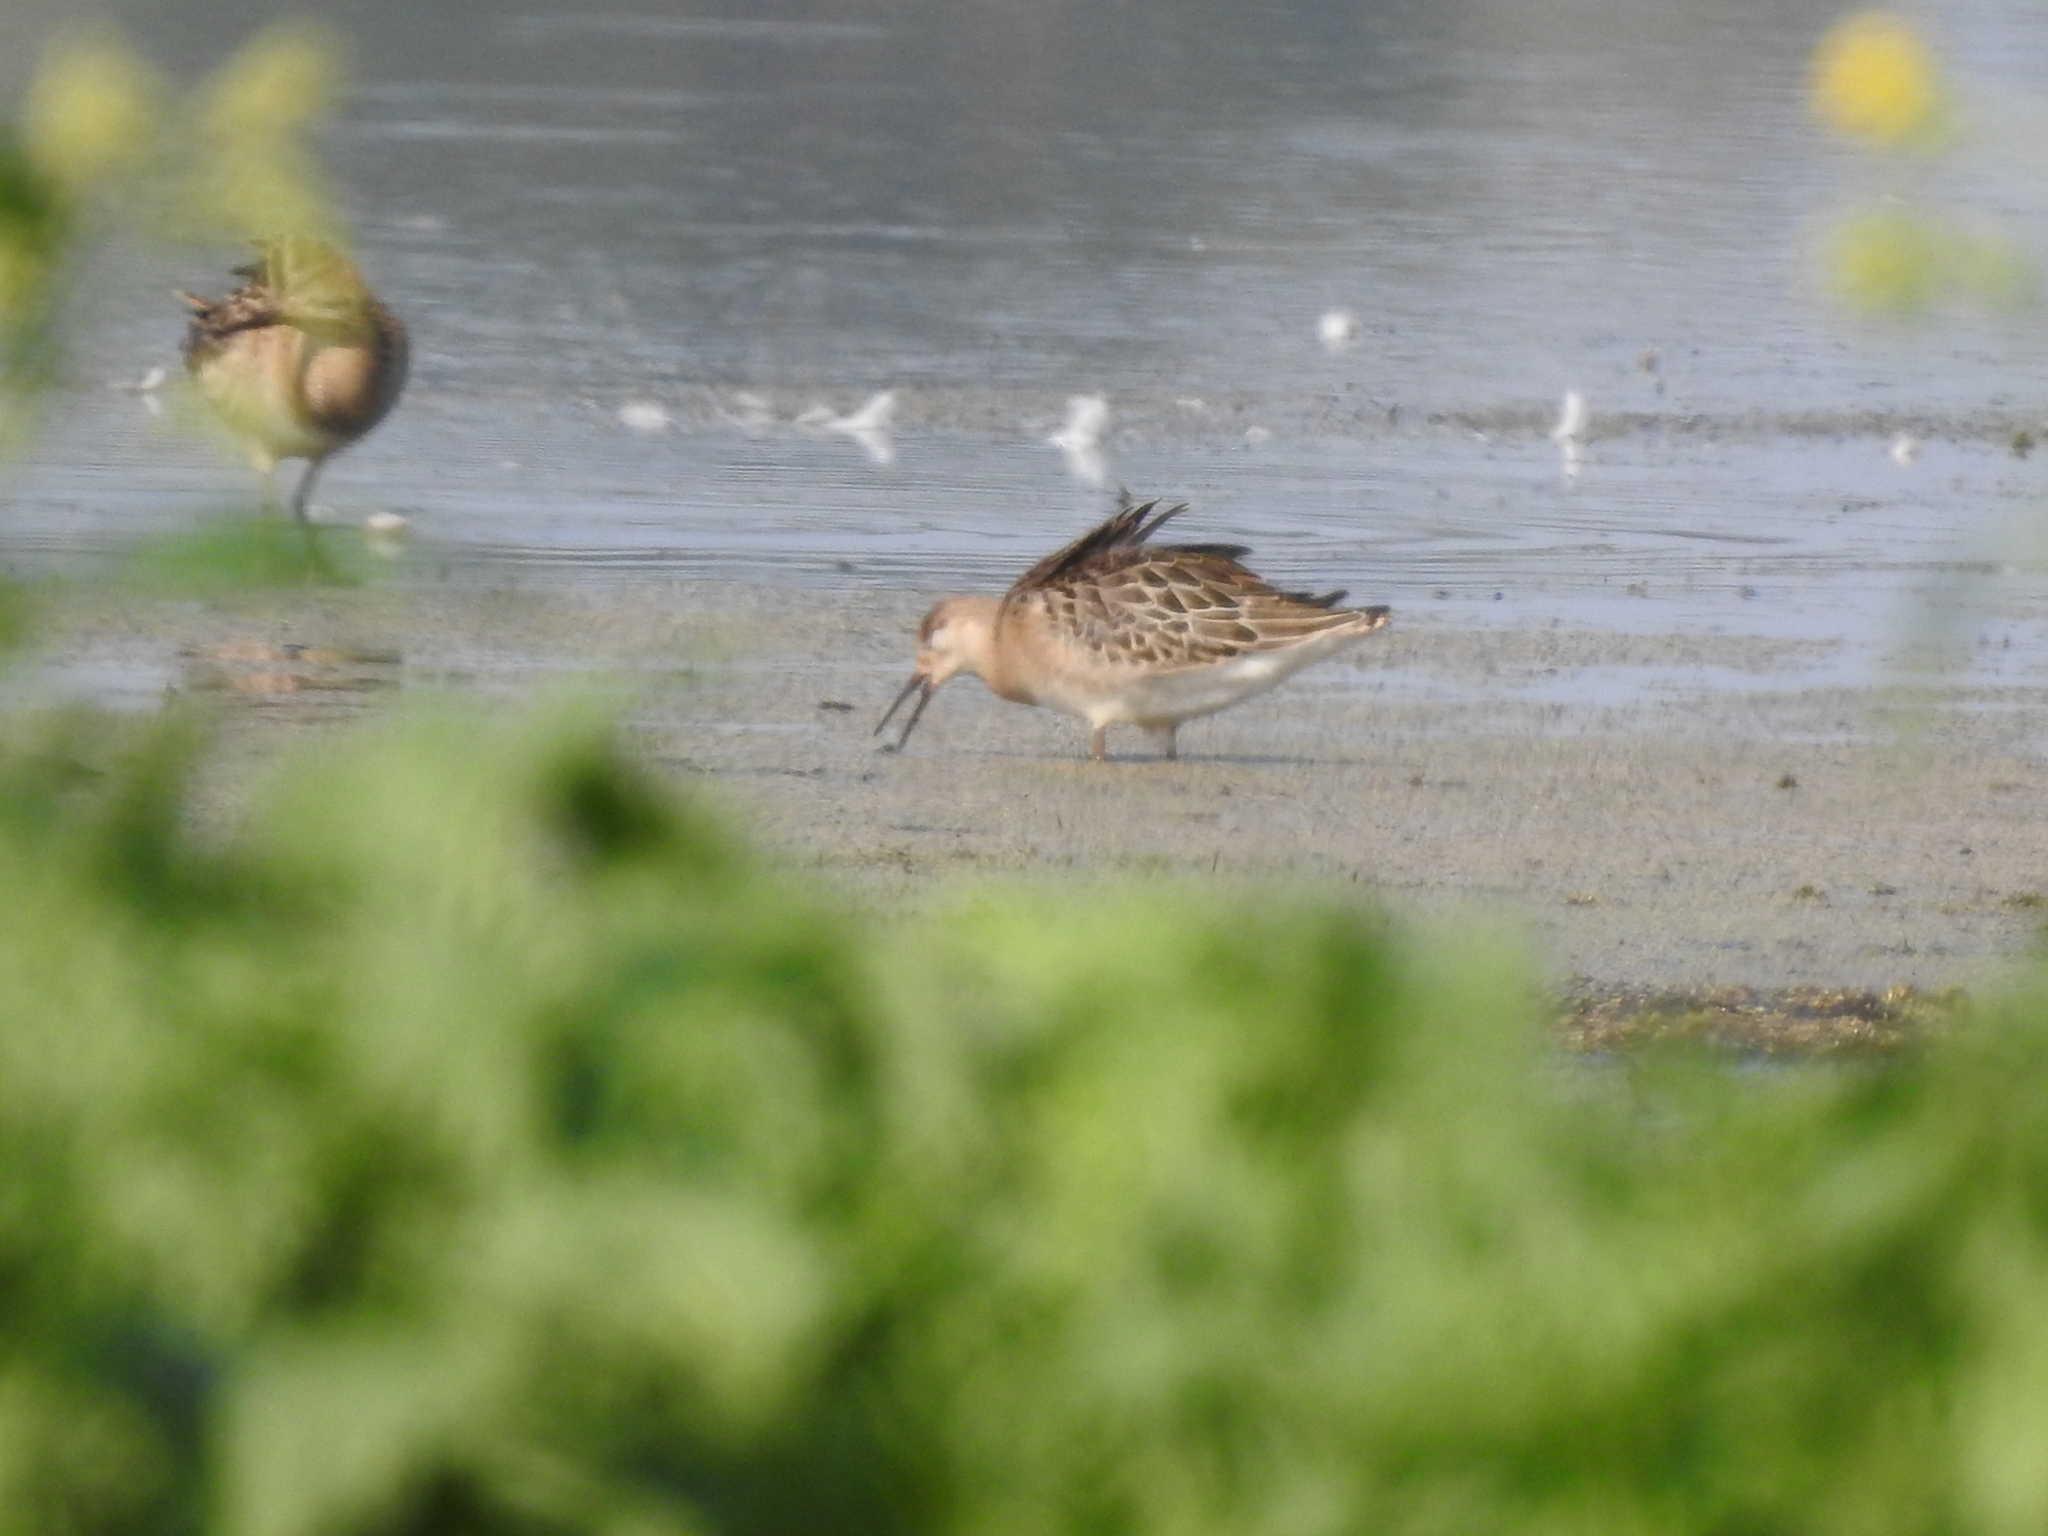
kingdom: Animalia
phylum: Chordata
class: Aves
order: Charadriiformes
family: Scolopacidae
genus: Calidris
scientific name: Calidris pugnax
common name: Ruff
